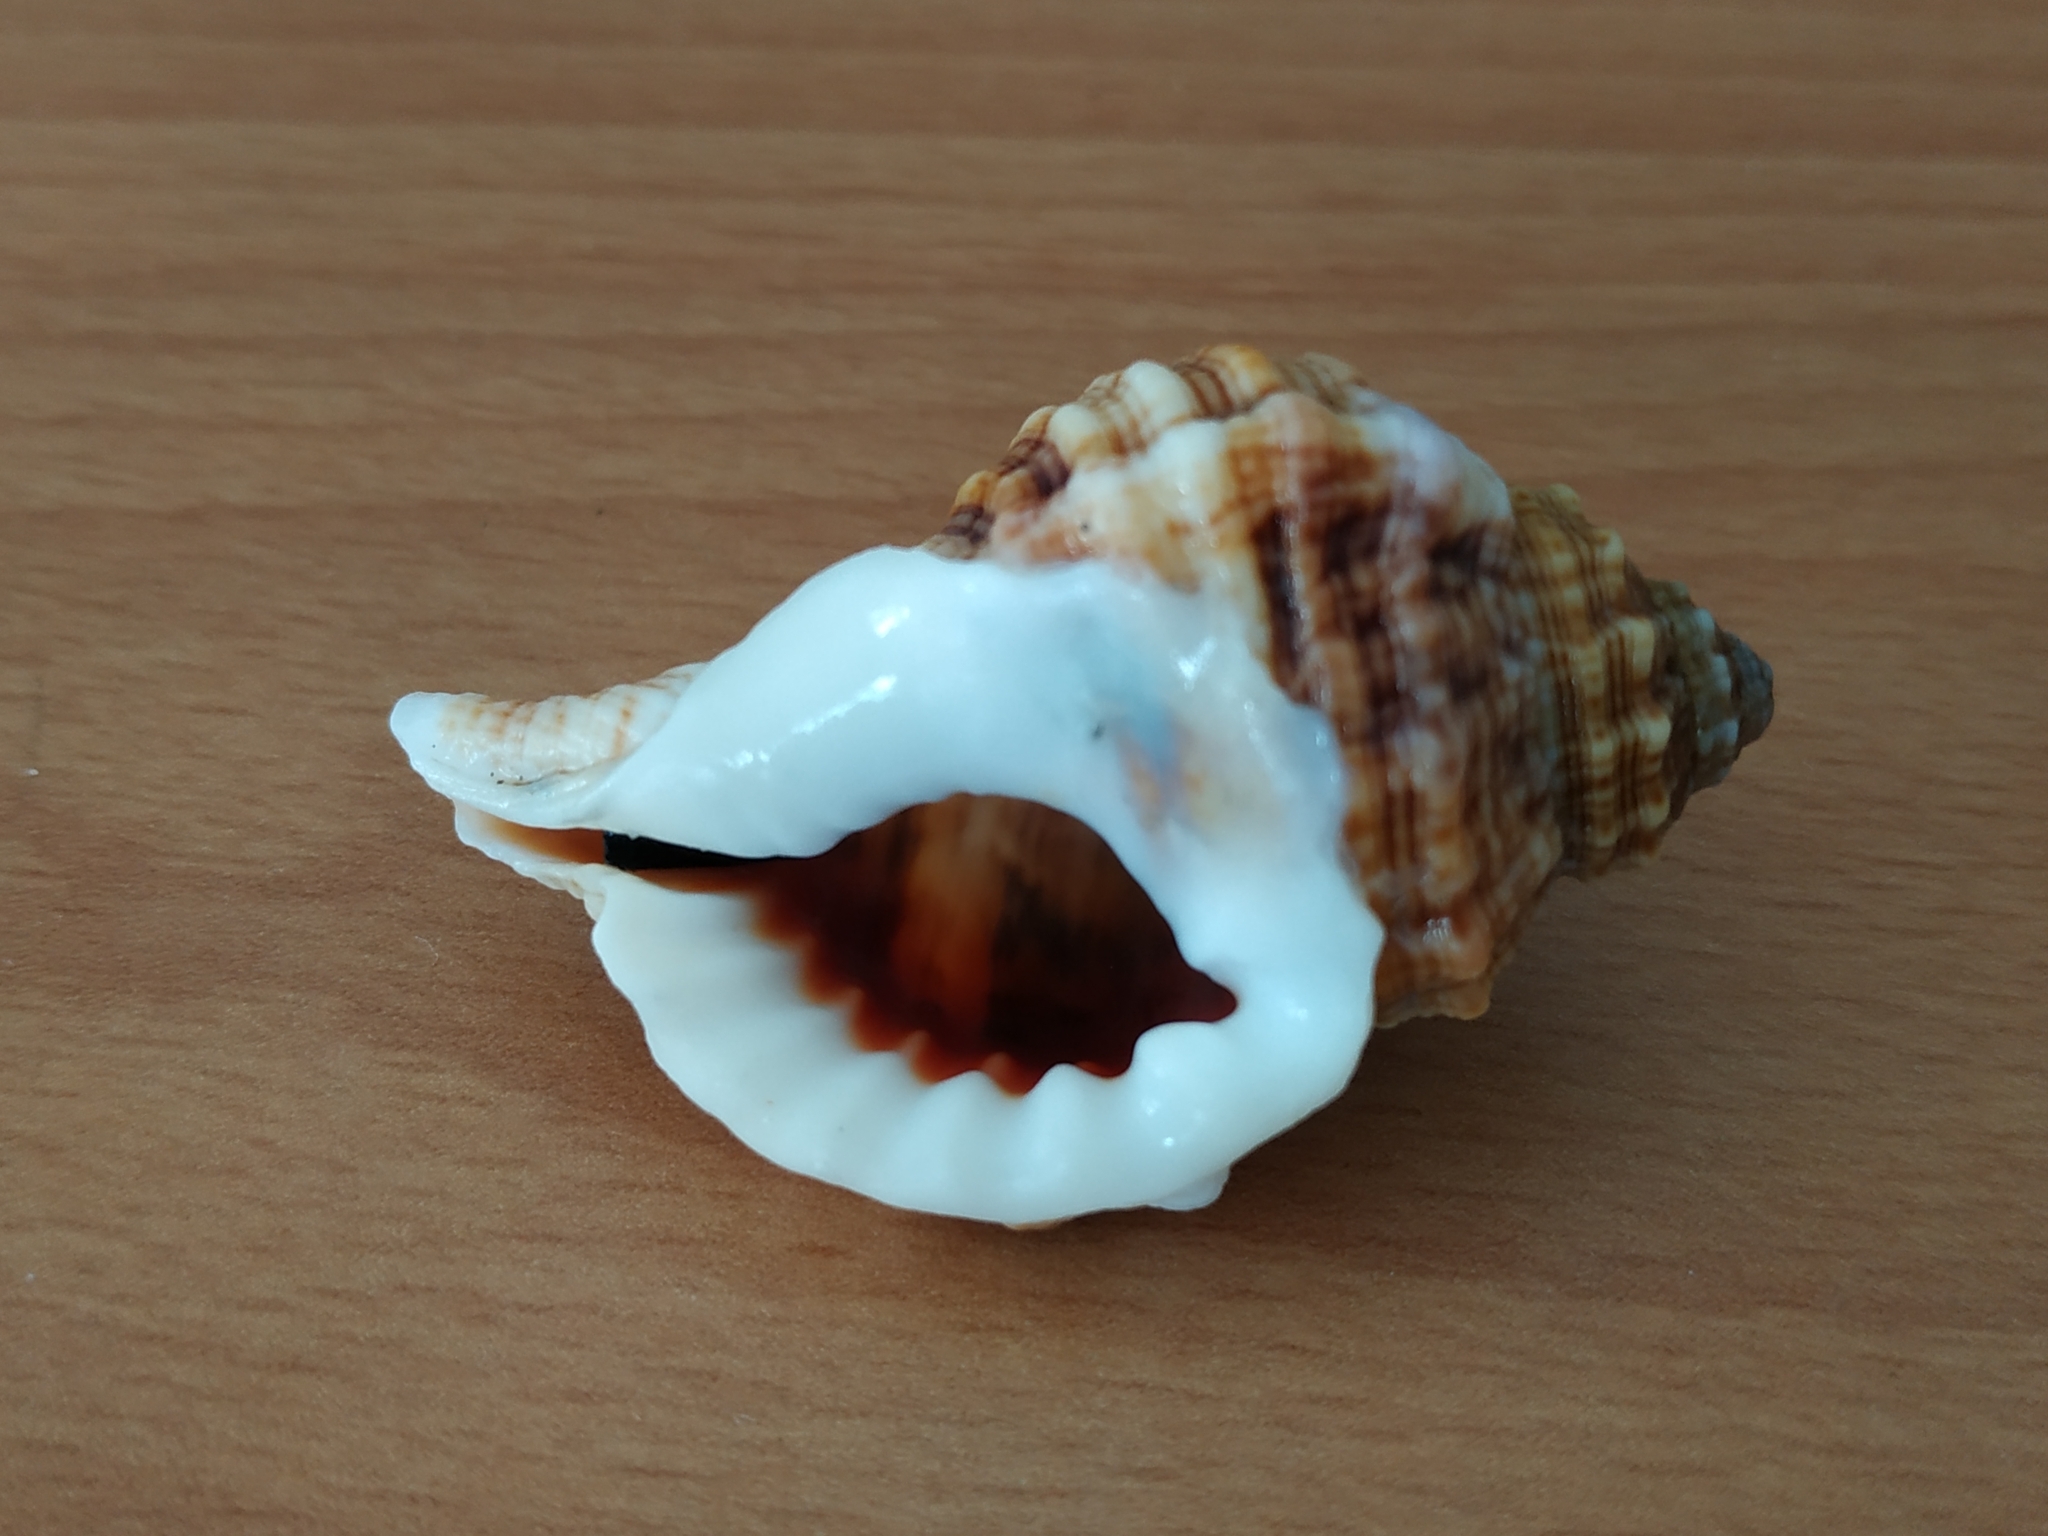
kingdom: Animalia
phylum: Mollusca
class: Gastropoda
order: Littorinimorpha
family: Cymatiidae
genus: Gutturnium
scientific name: Gutturnium muricinum
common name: Knobbed triton
